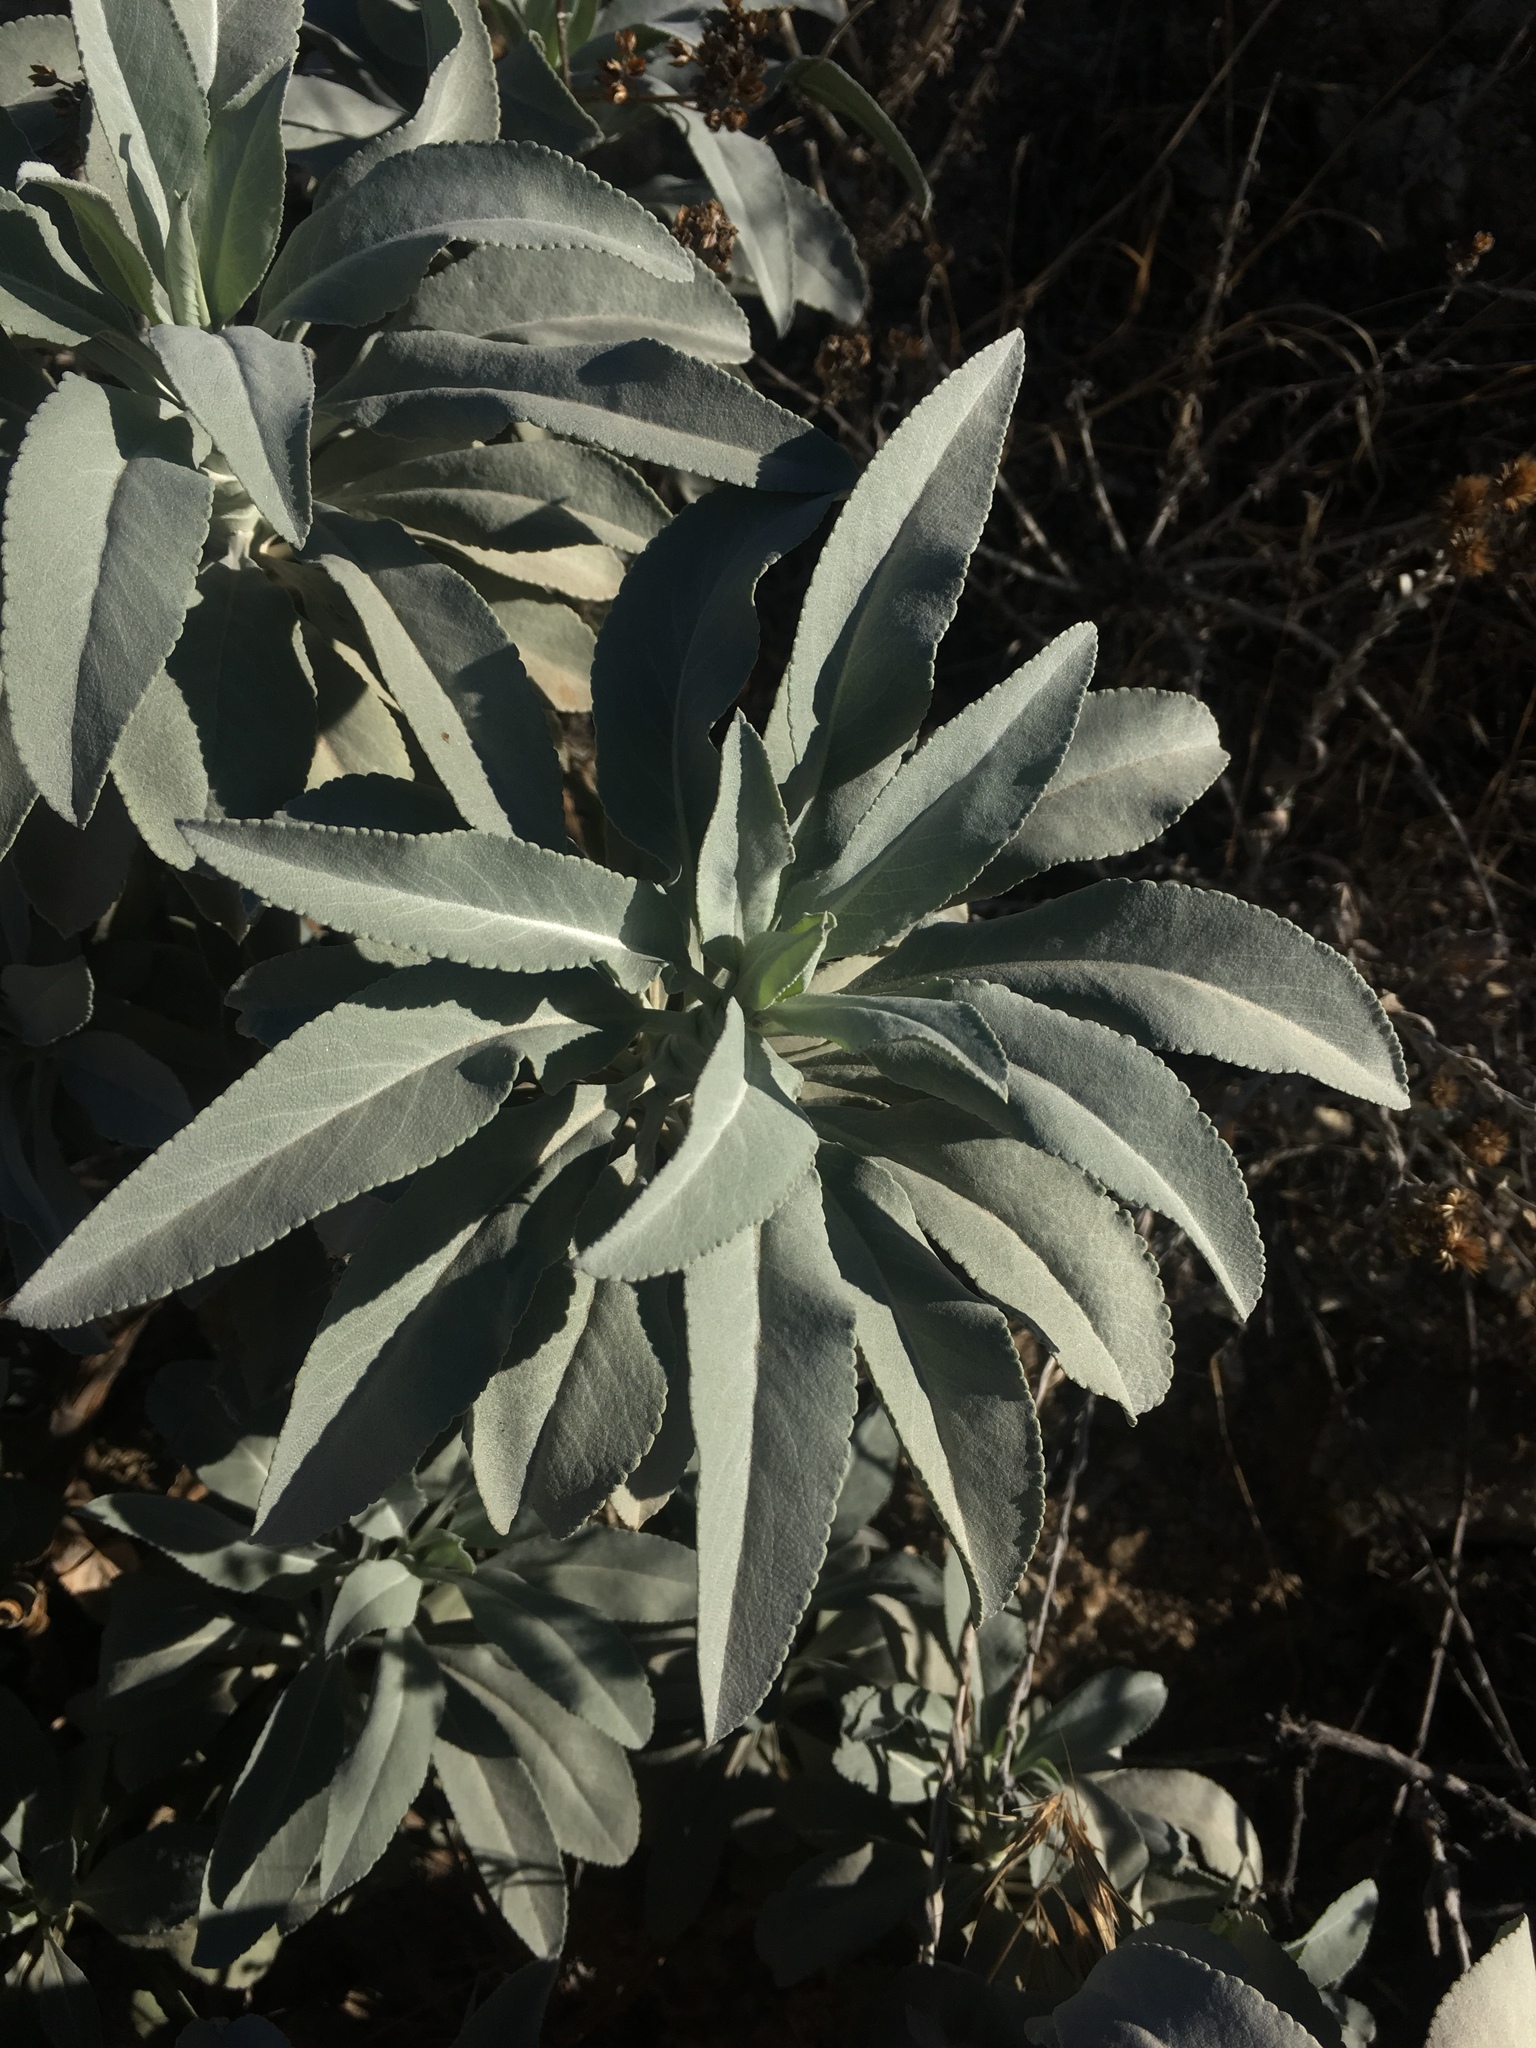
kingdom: Plantae
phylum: Tracheophyta
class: Magnoliopsida
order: Lamiales
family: Lamiaceae
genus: Salvia
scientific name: Salvia apiana
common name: White sage
